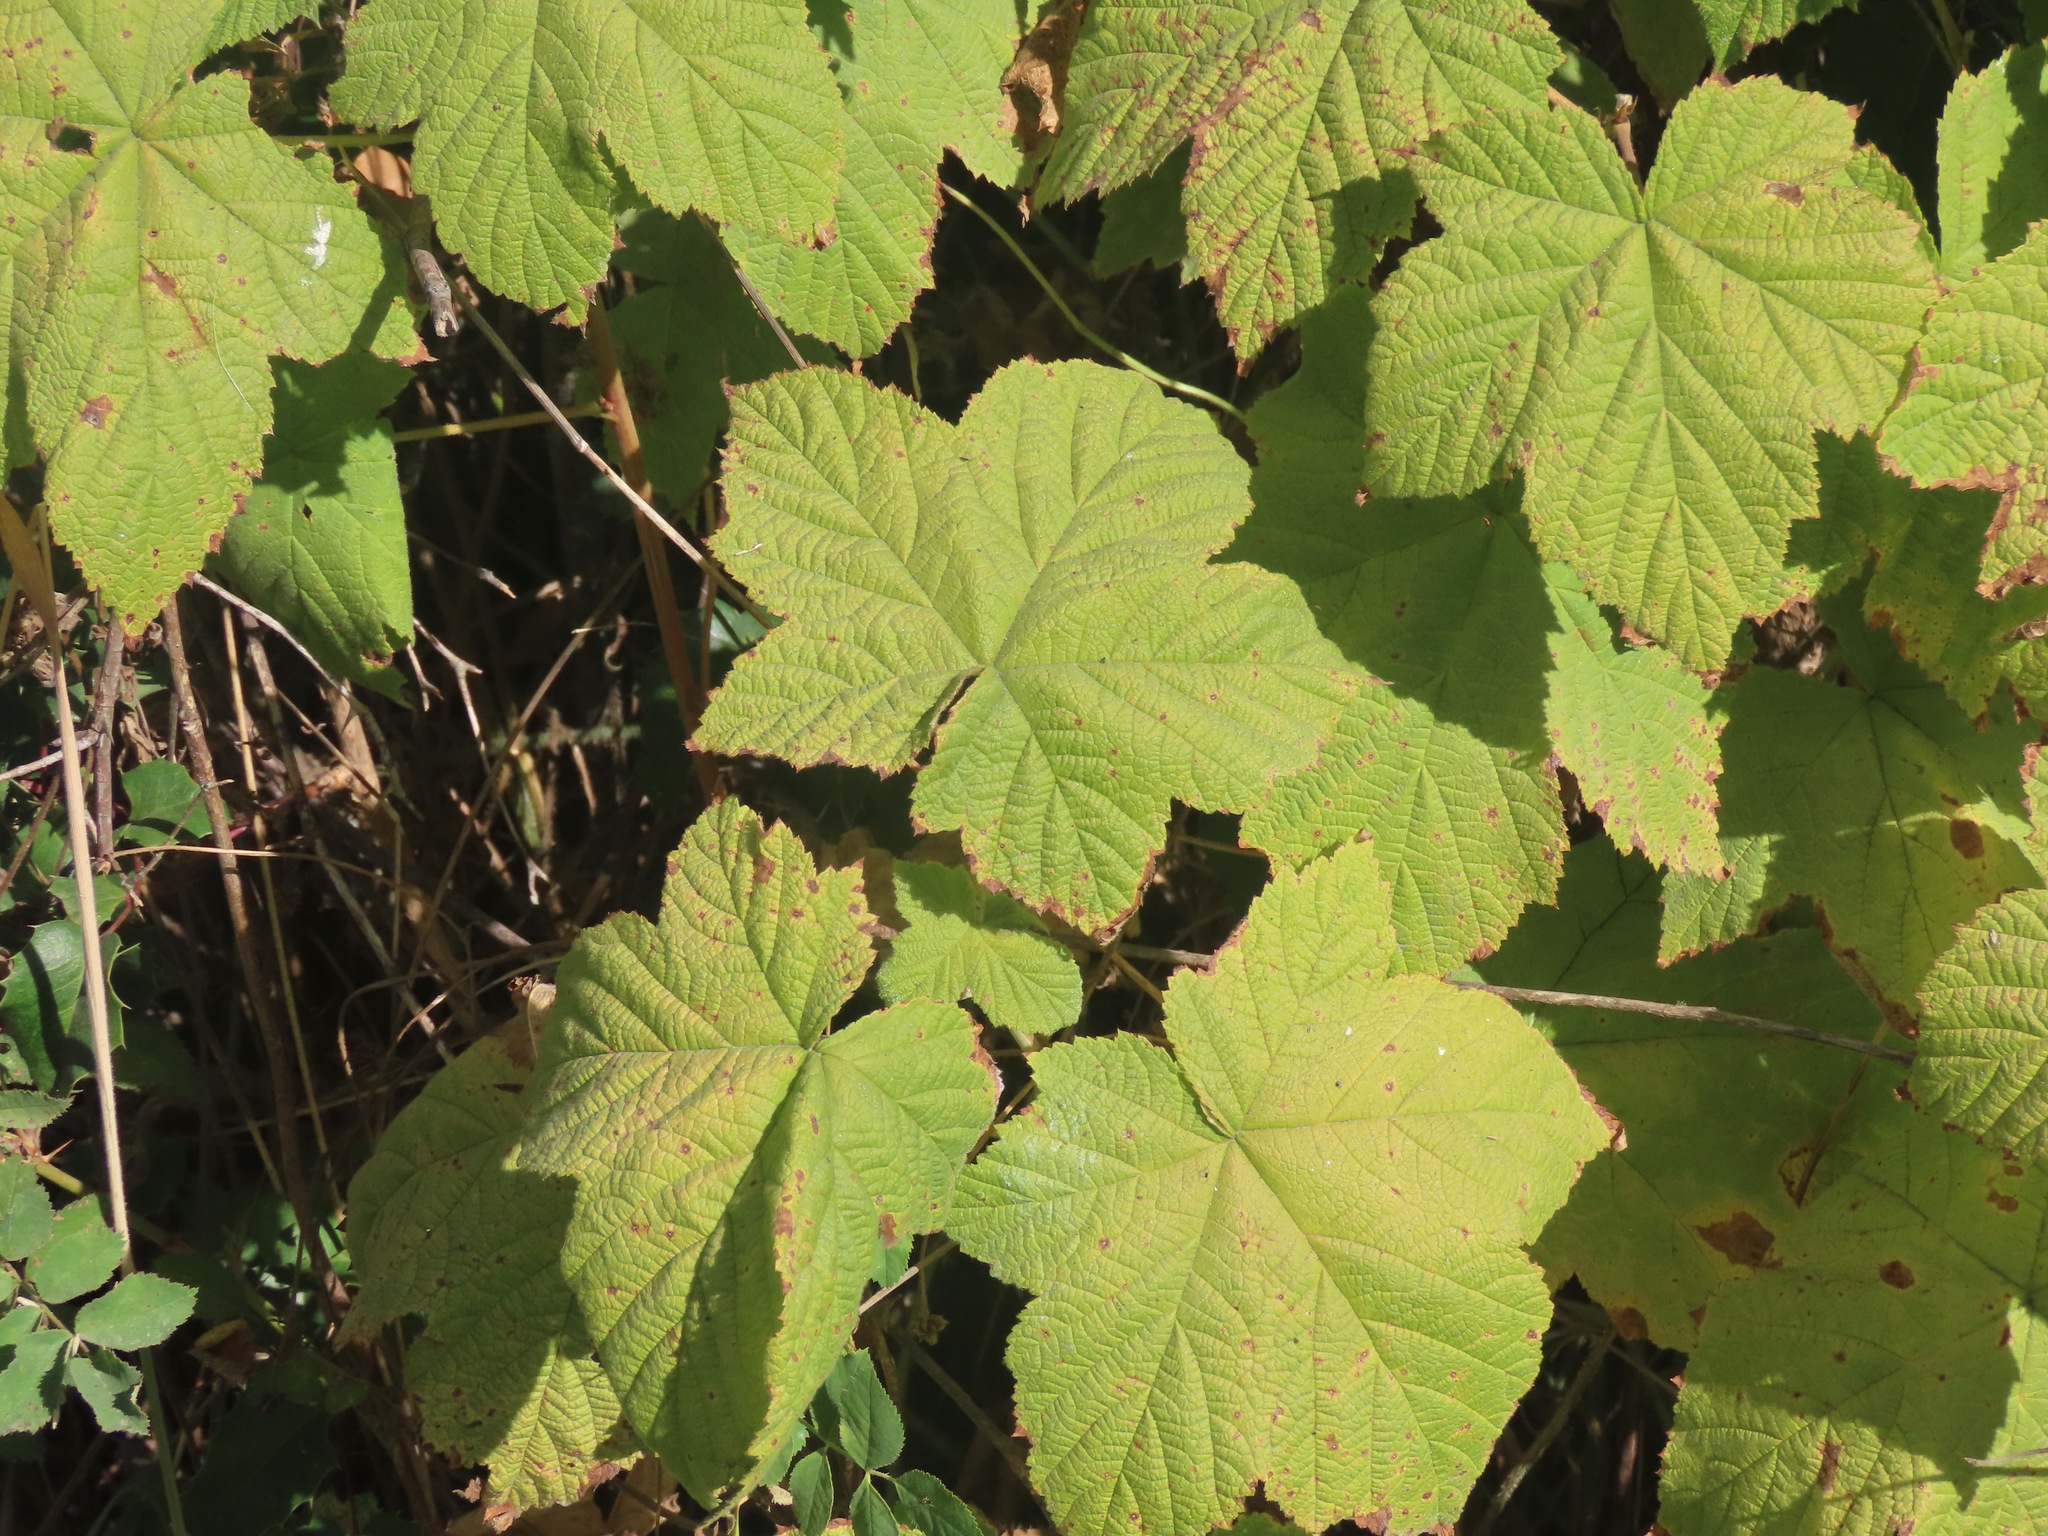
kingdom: Plantae
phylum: Tracheophyta
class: Magnoliopsida
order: Rosales
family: Rosaceae
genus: Rubus
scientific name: Rubus parviflorus
